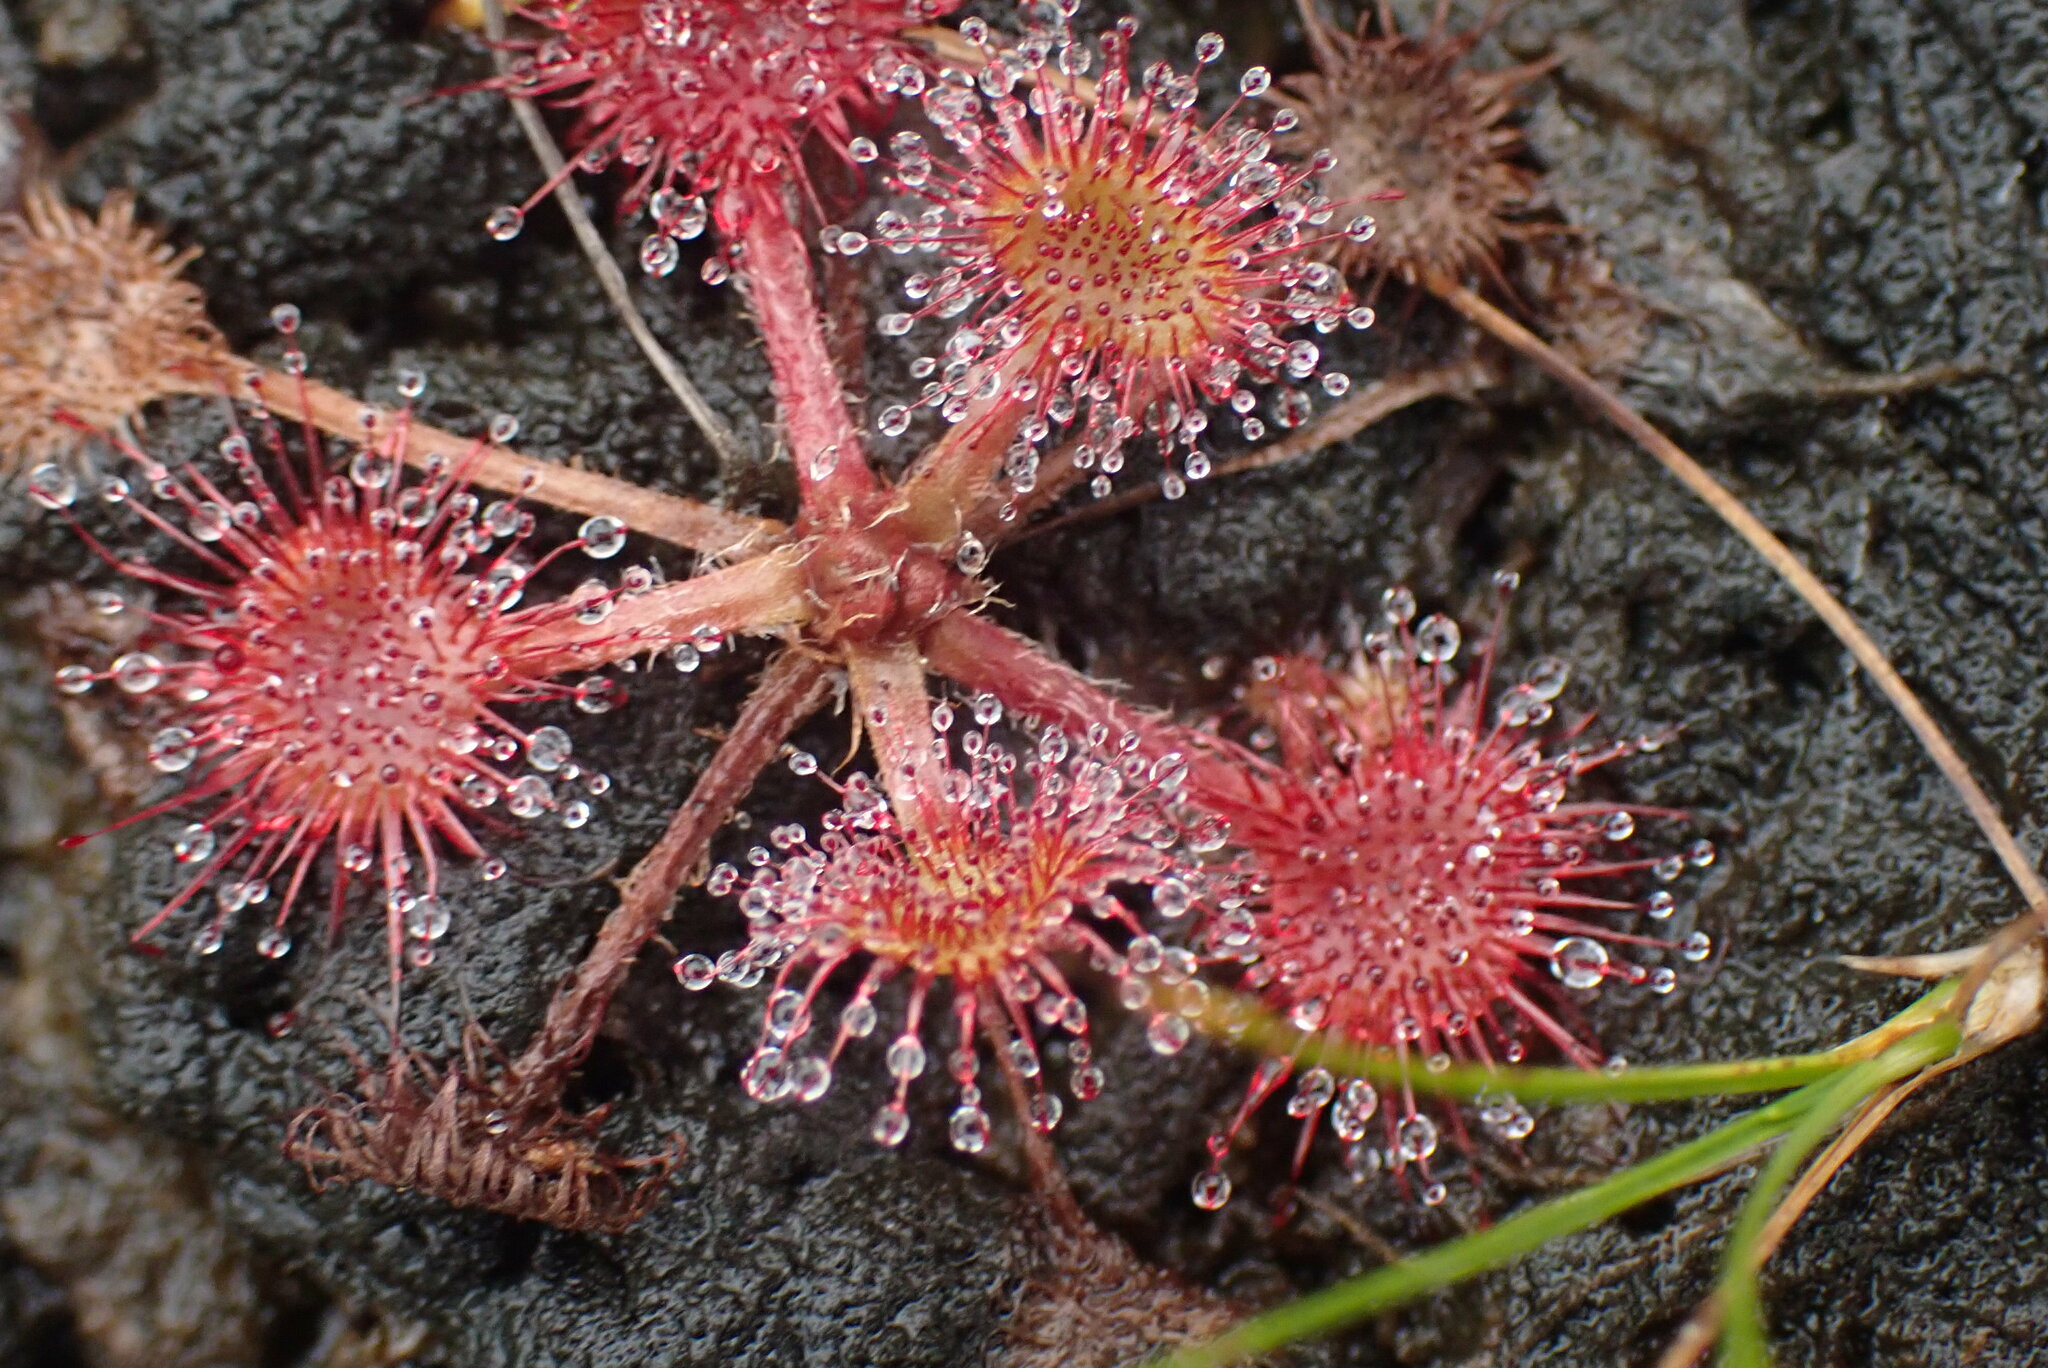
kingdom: Plantae
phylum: Tracheophyta
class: Magnoliopsida
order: Caryophyllales
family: Droseraceae
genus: Drosera
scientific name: Drosera rotundifolia
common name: Round-leaved sundew
